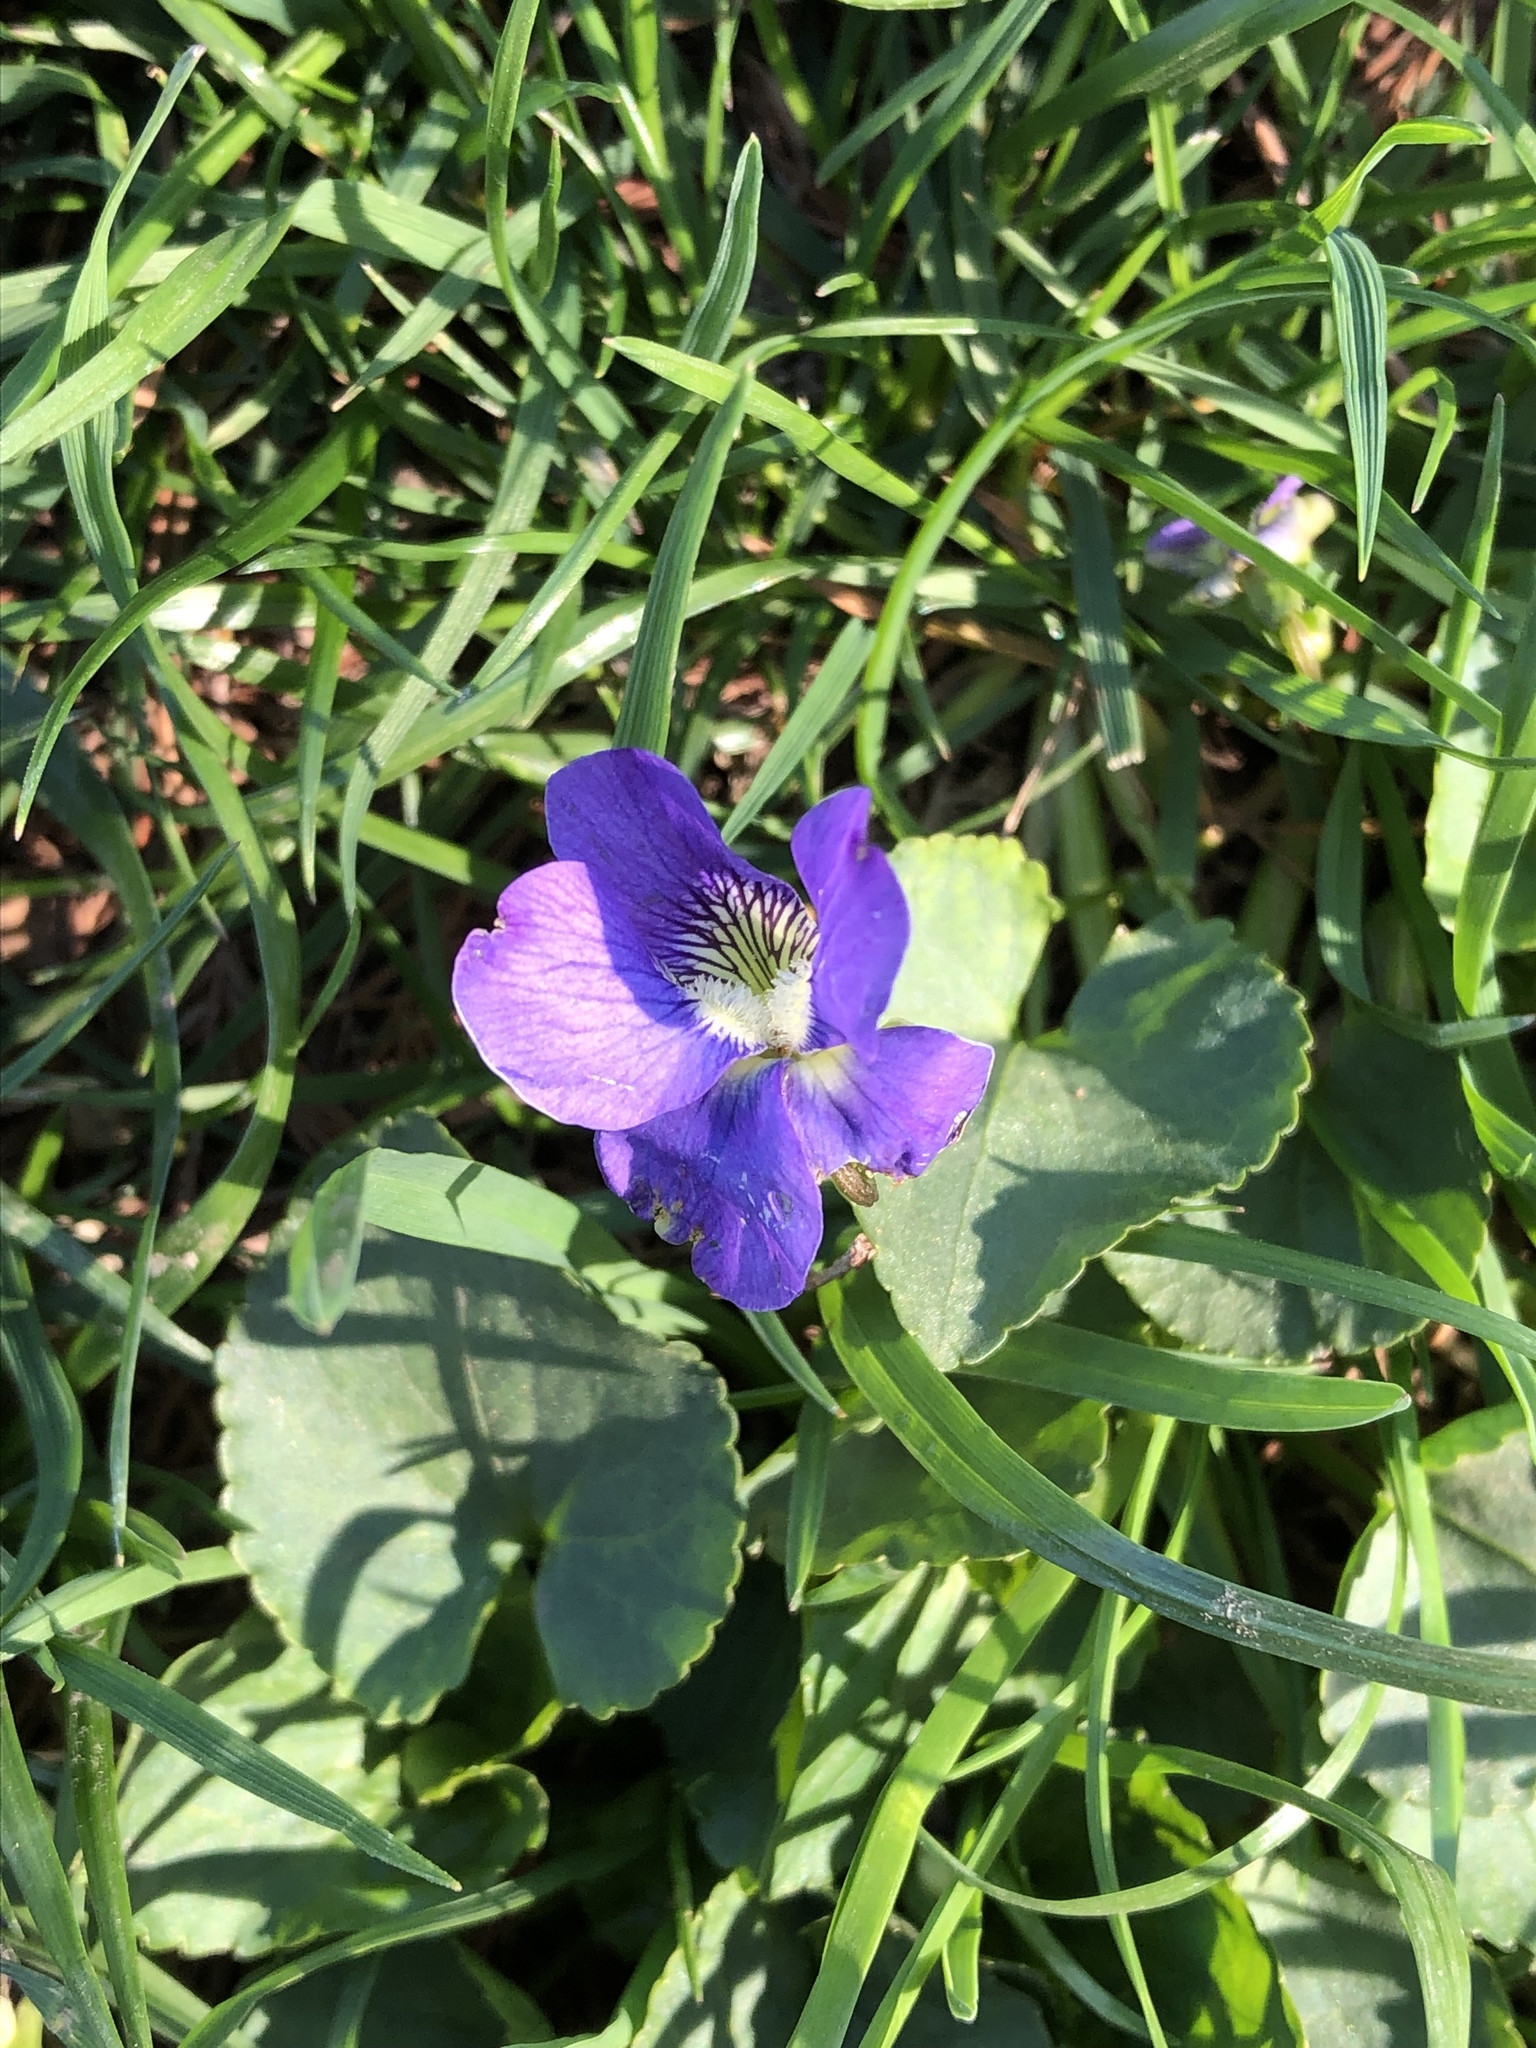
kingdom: Plantae
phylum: Tracheophyta
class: Magnoliopsida
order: Malpighiales
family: Violaceae
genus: Viola
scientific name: Viola sororia
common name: Dooryard violet
